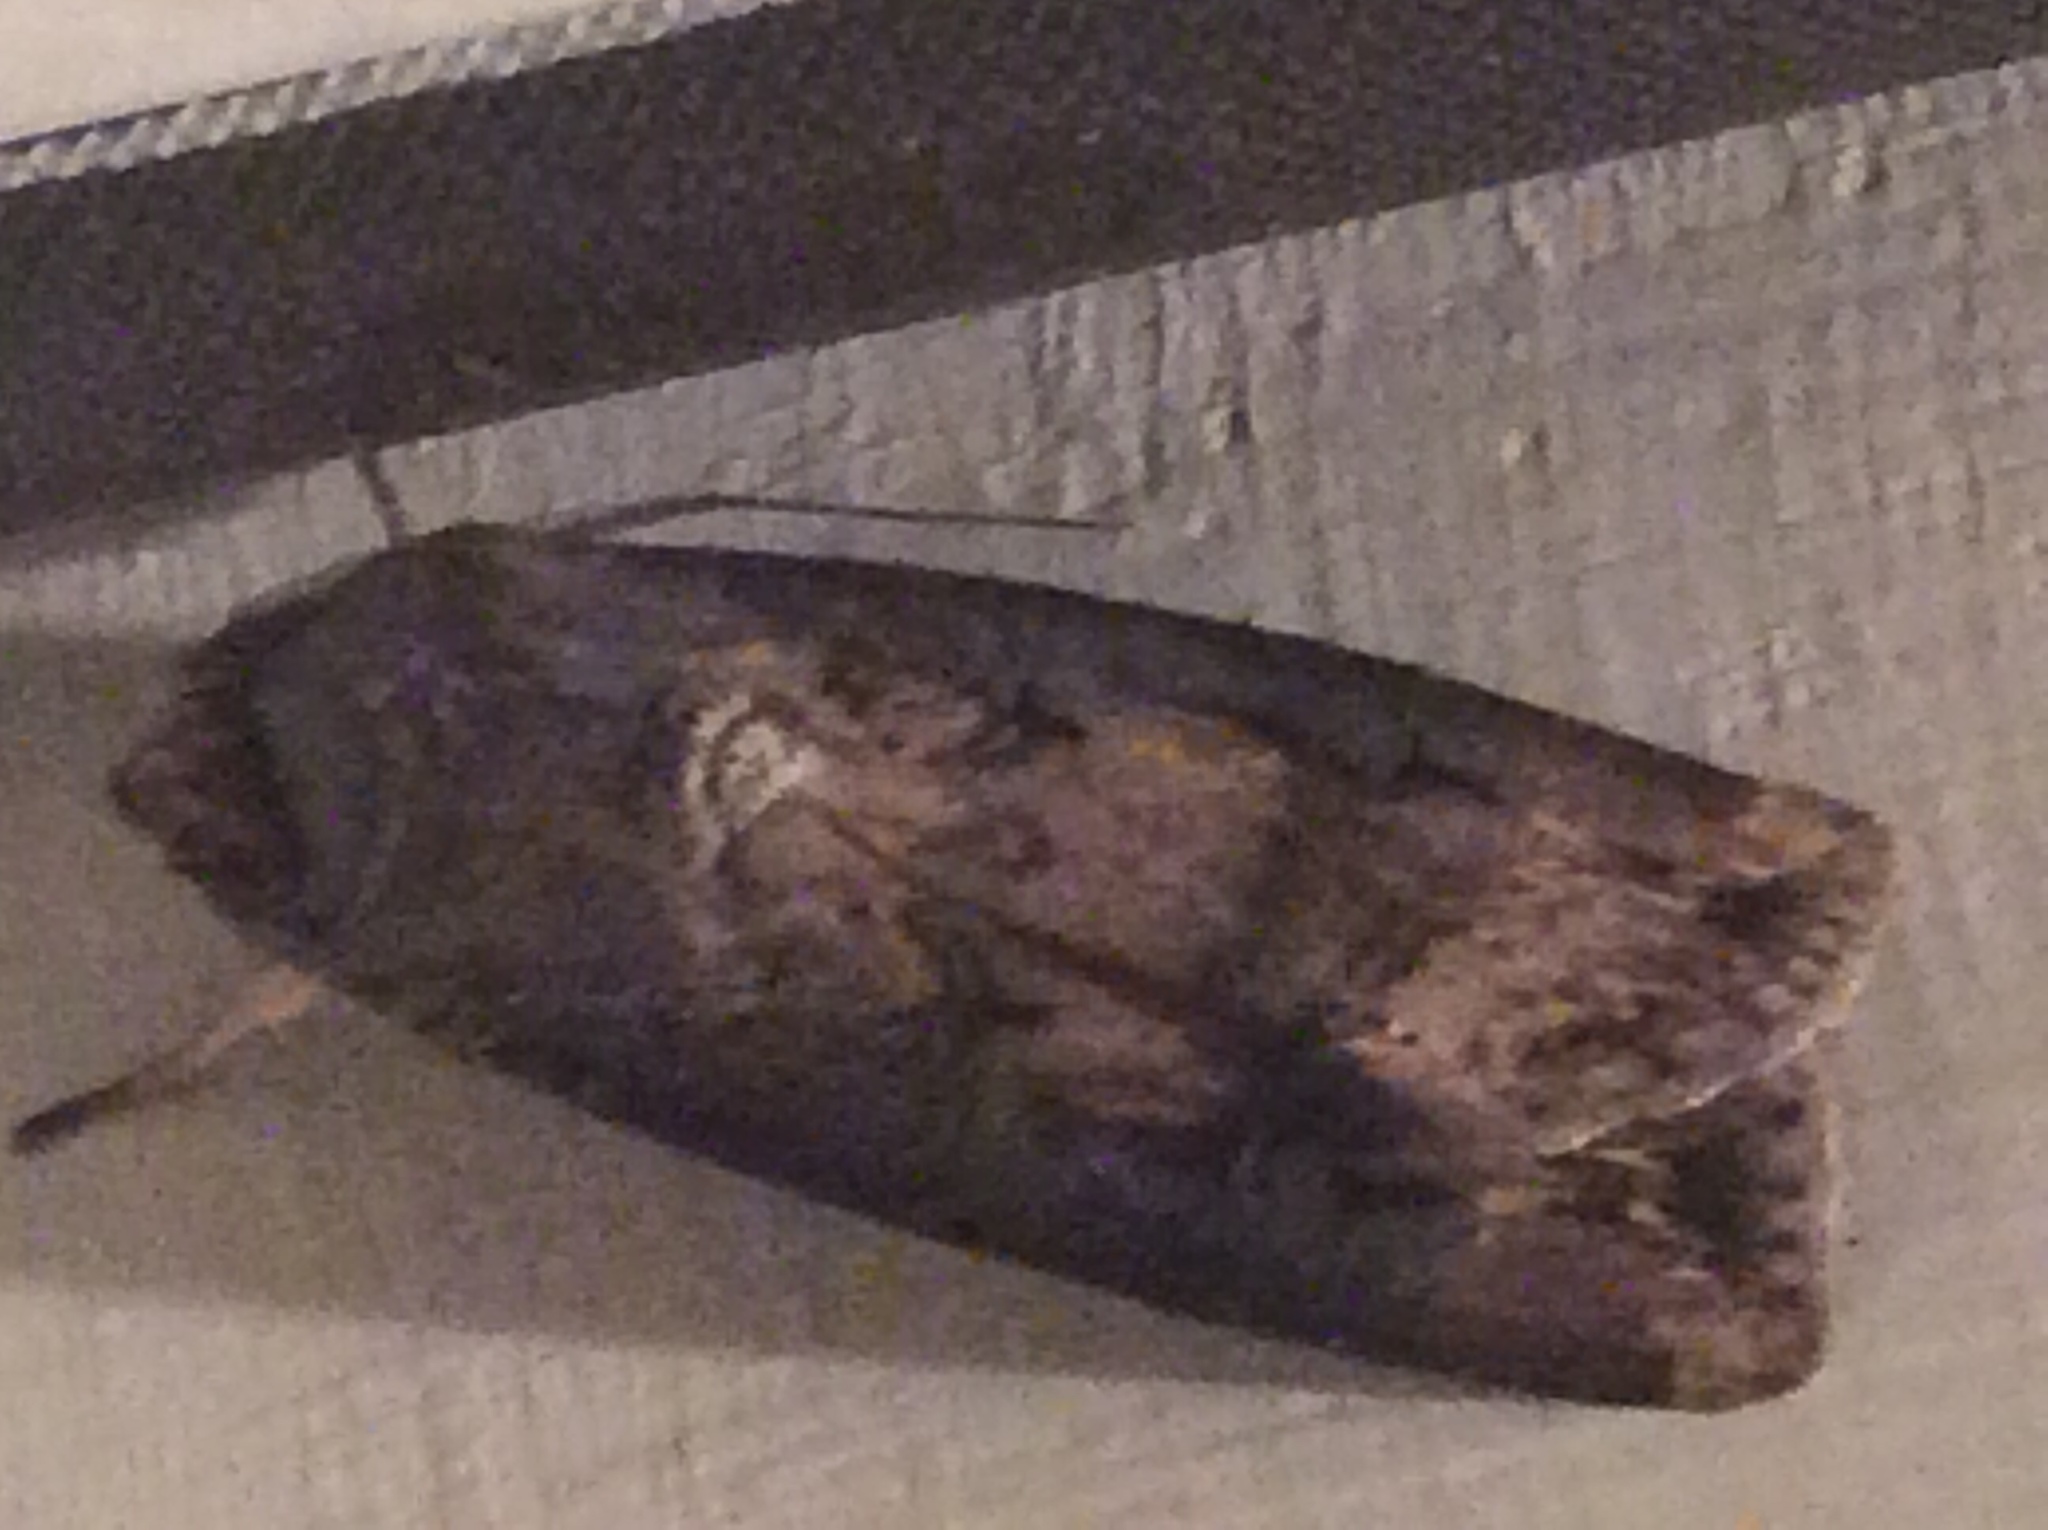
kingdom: Animalia
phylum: Arthropoda
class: Insecta
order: Lepidoptera
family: Noctuidae
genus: Agrotis
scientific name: Agrotis ipsilon
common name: Dark sword-grass
